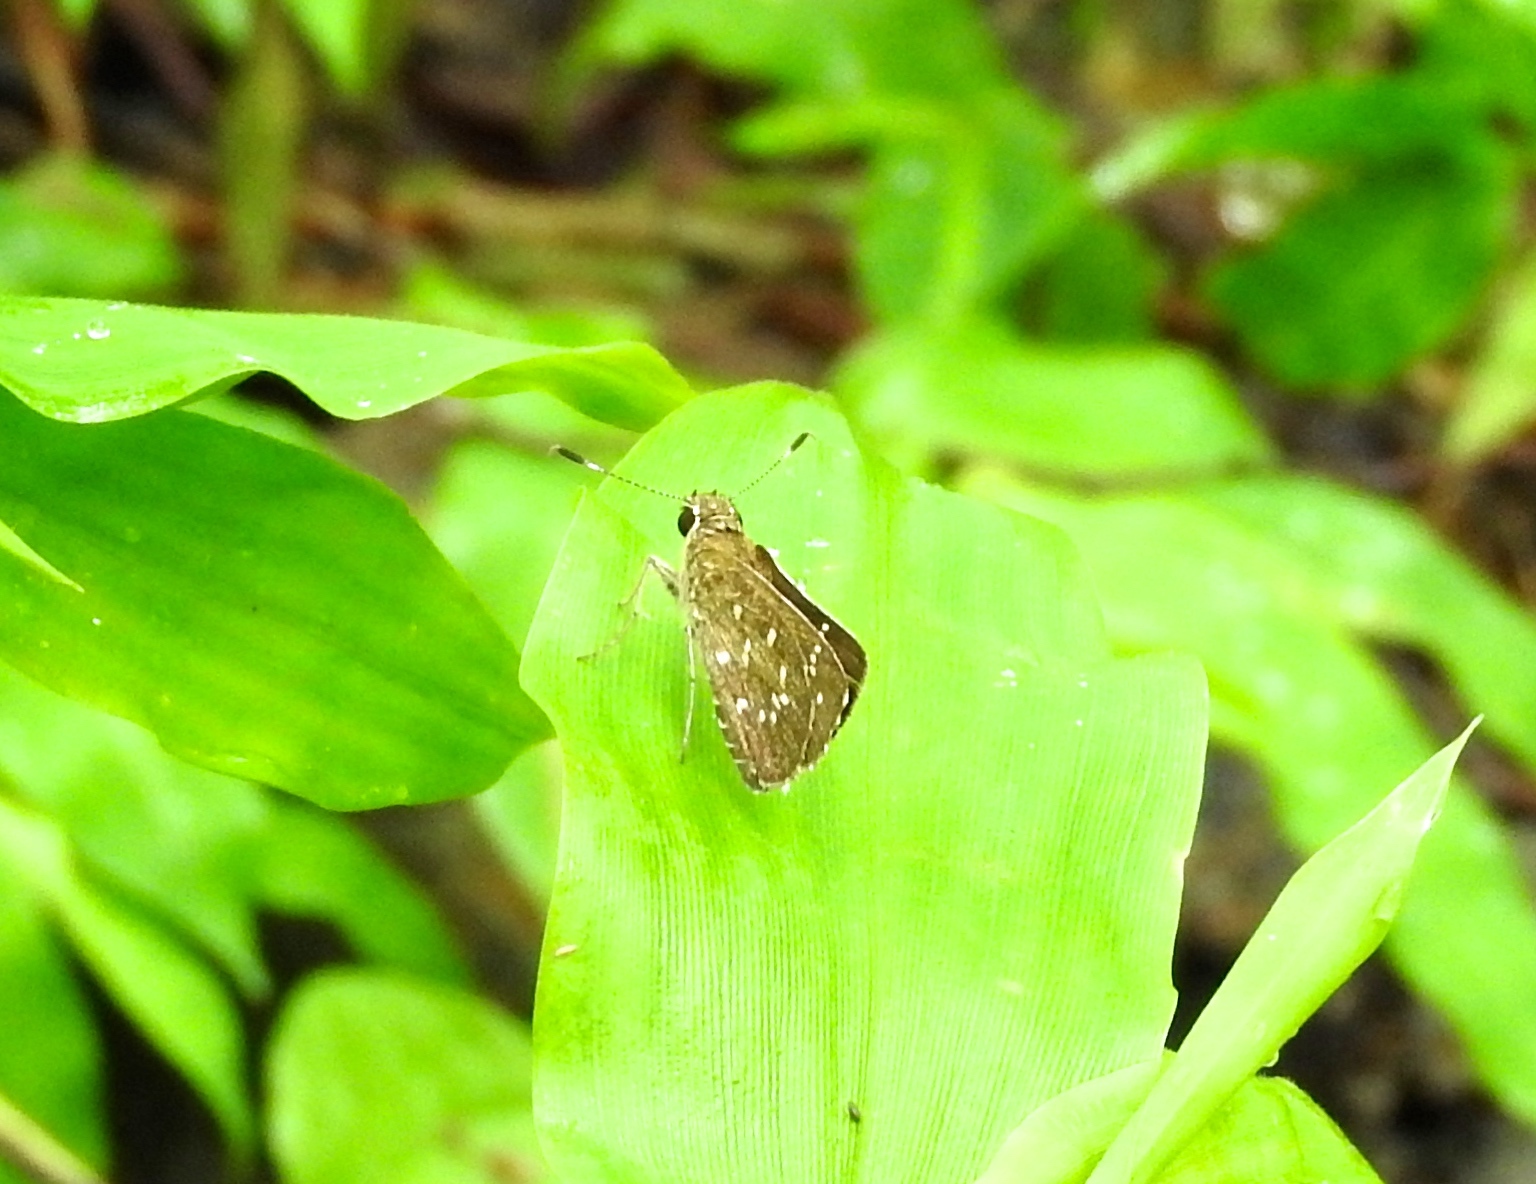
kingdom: Animalia
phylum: Arthropoda
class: Insecta
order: Lepidoptera
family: Hesperiidae
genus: Amblyscirtes
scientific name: Amblyscirtes
